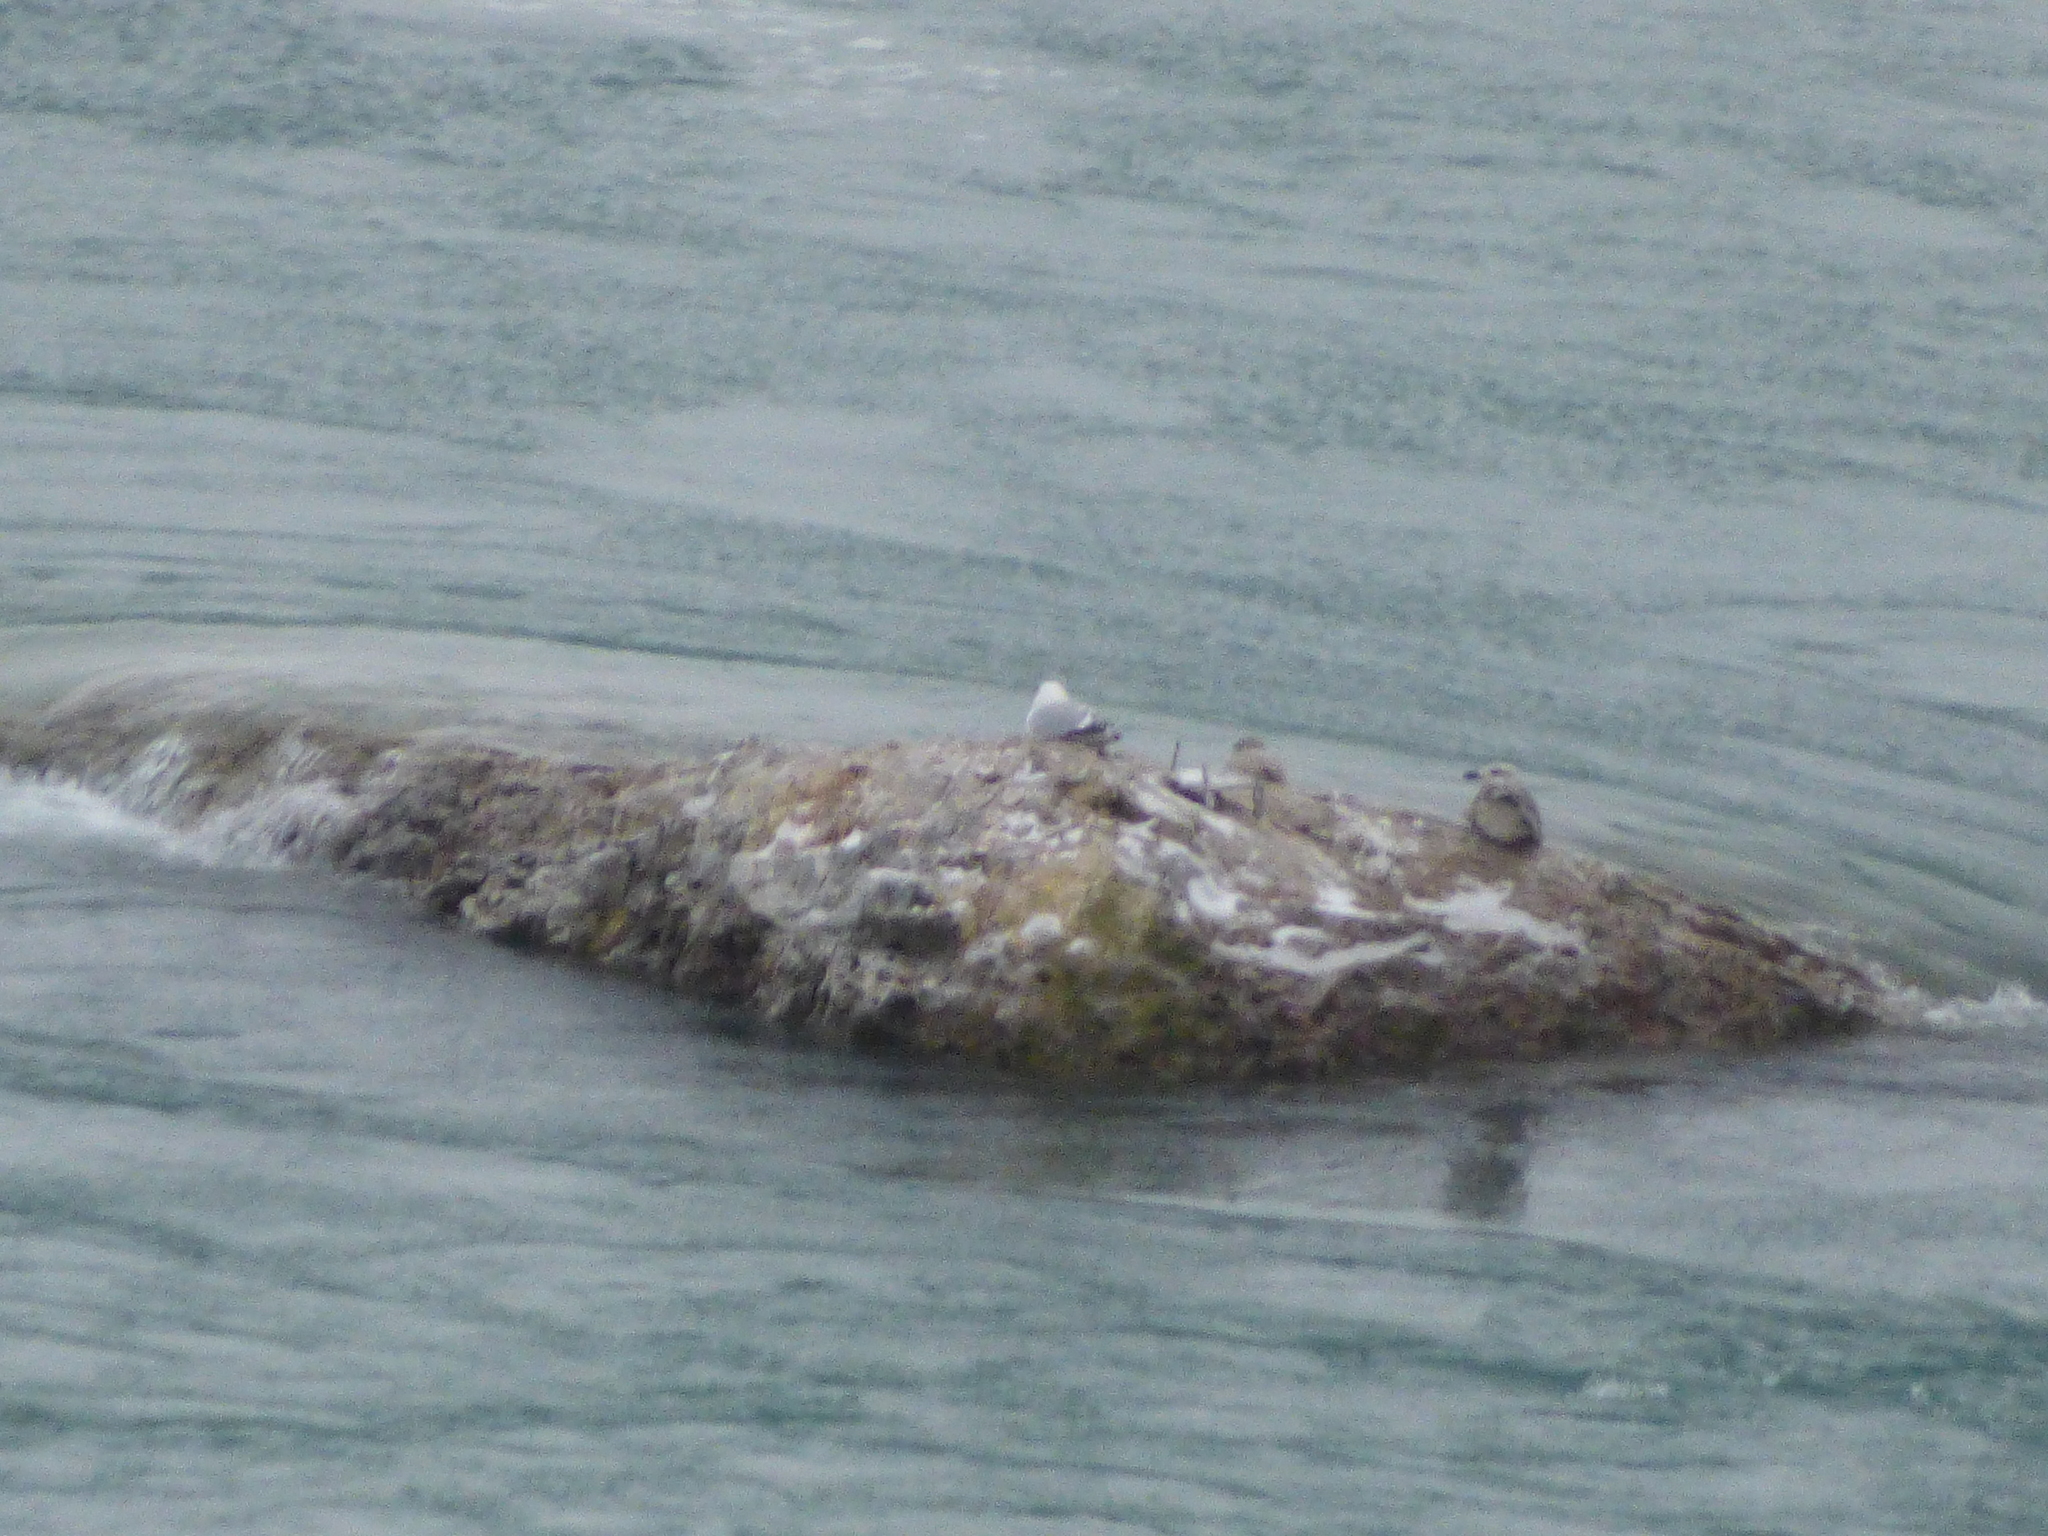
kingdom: Animalia
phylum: Chordata
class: Aves
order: Charadriiformes
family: Laridae
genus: Larus
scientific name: Larus argentatus
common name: Herring gull
